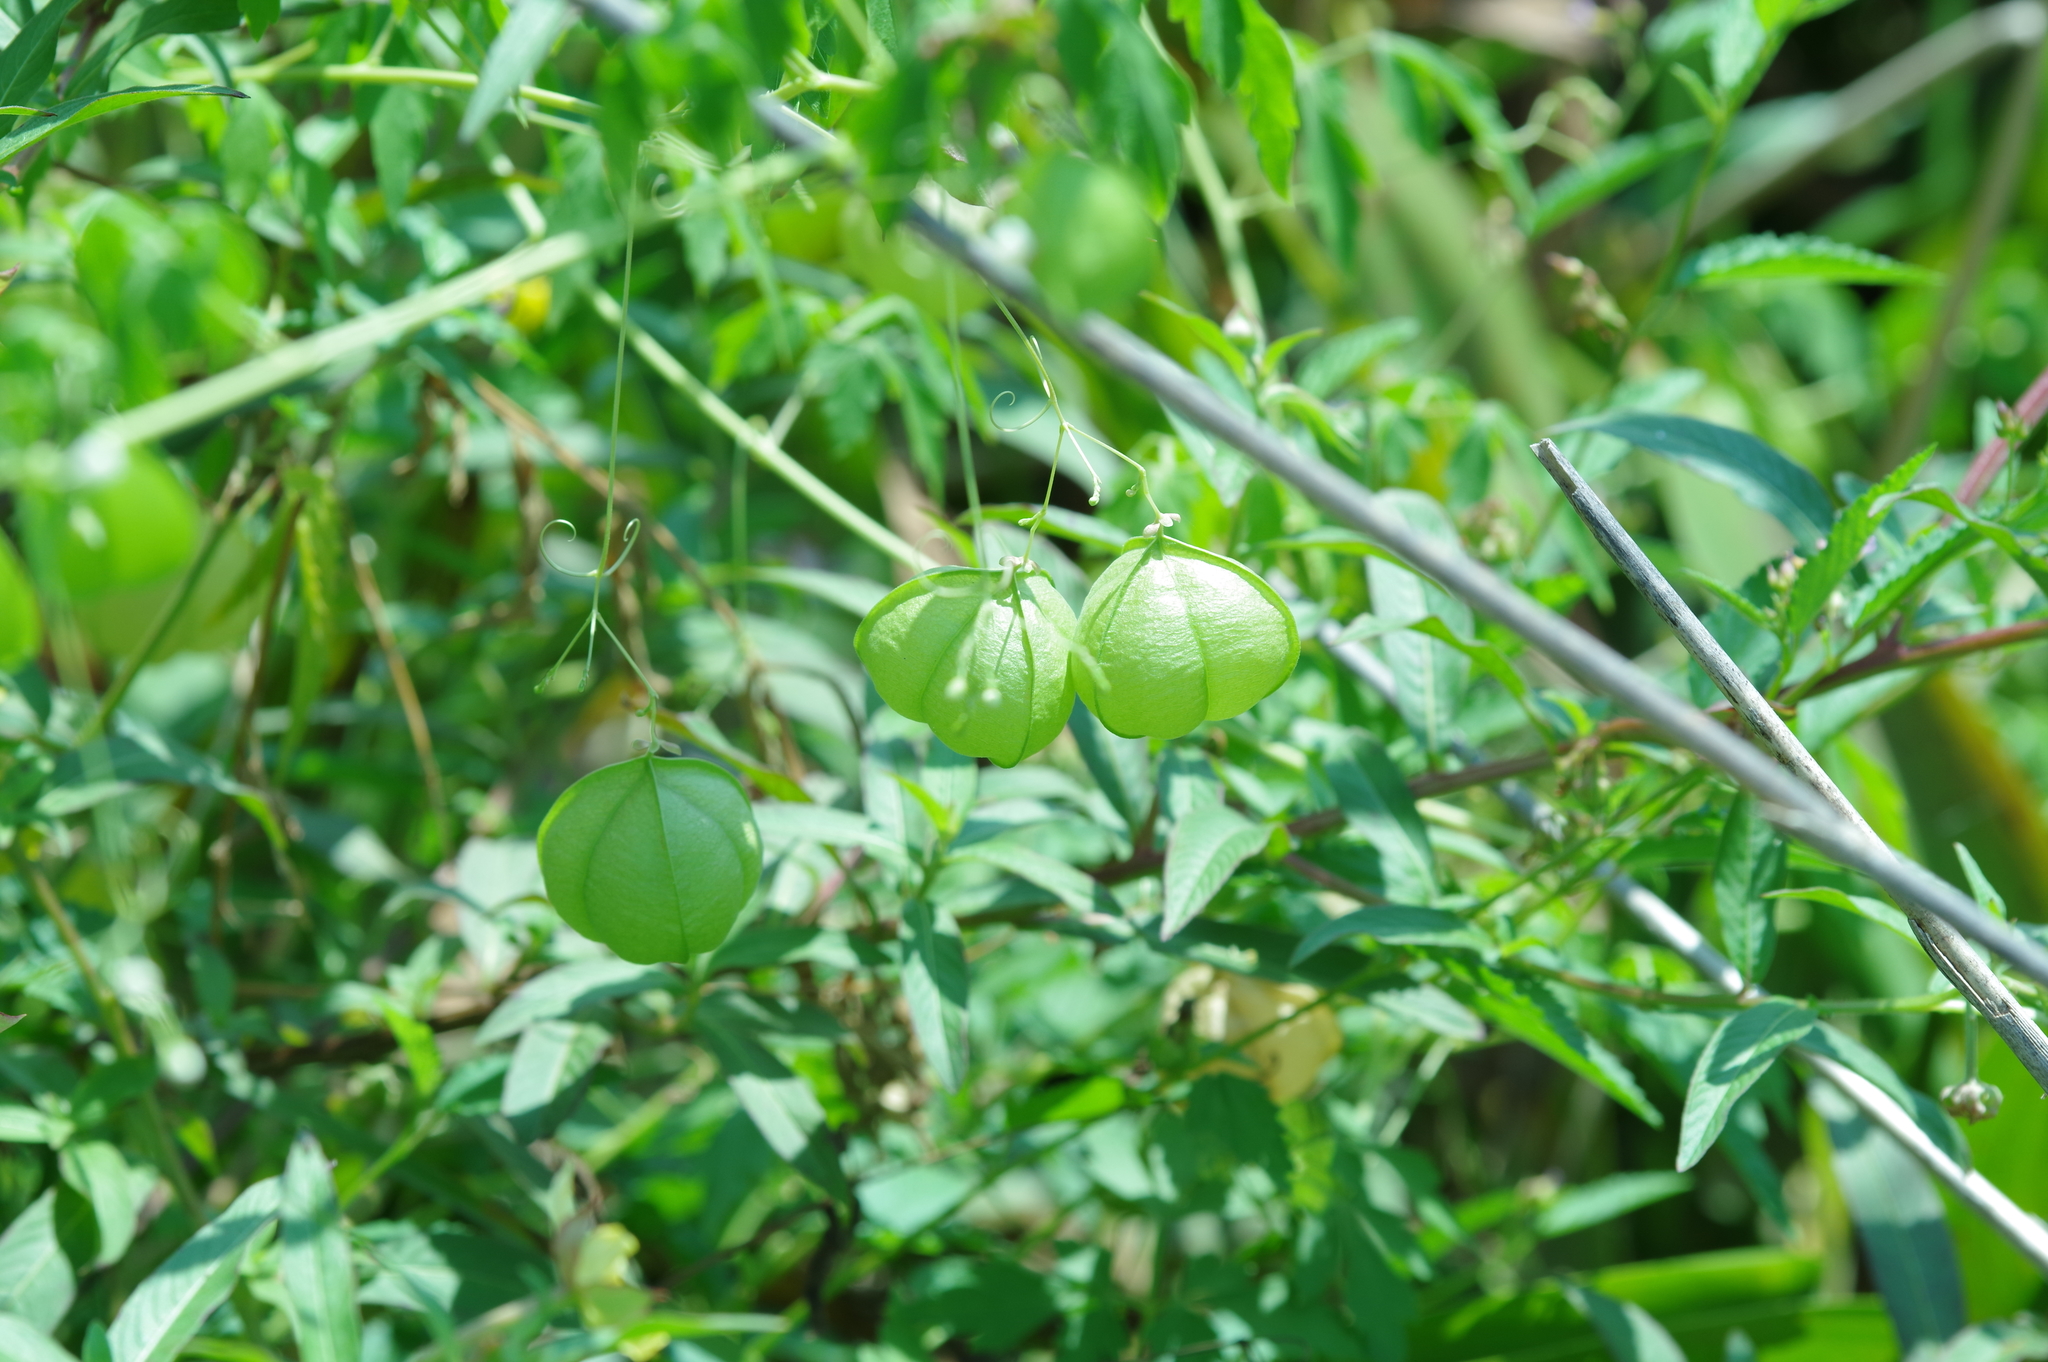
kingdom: Plantae
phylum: Tracheophyta
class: Magnoliopsida
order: Sapindales
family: Sapindaceae
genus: Cardiospermum
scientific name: Cardiospermum halicacabum
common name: Balloon vine
